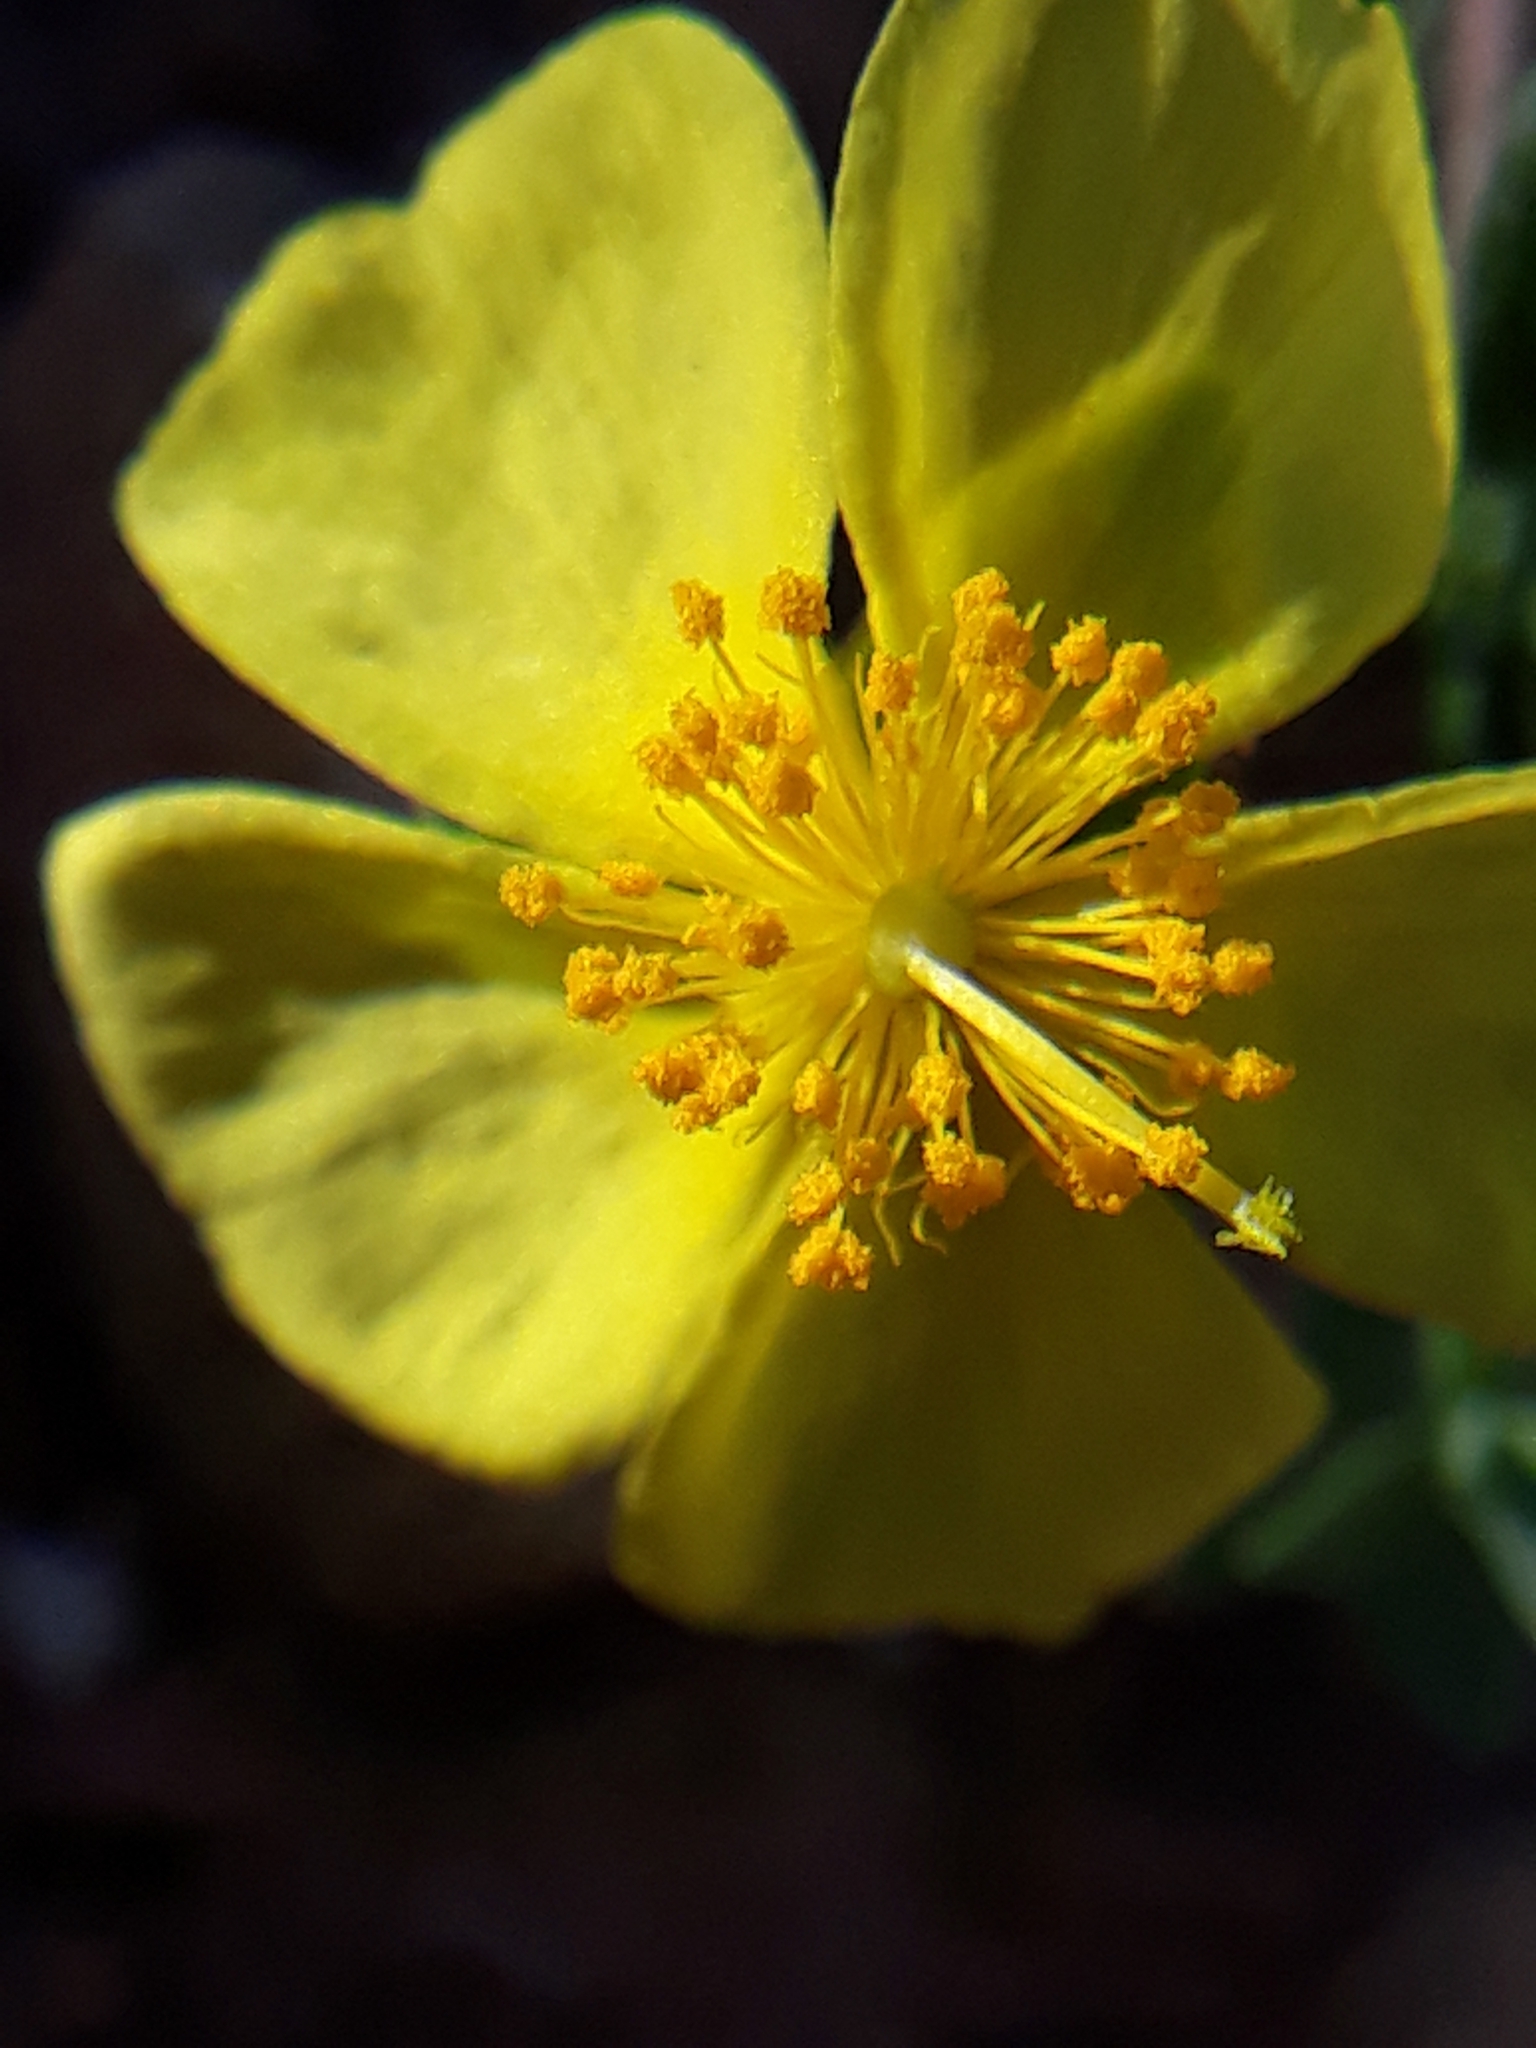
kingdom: Plantae
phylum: Tracheophyta
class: Magnoliopsida
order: Malvales
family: Cistaceae
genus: Fumana
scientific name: Fumana laevis
